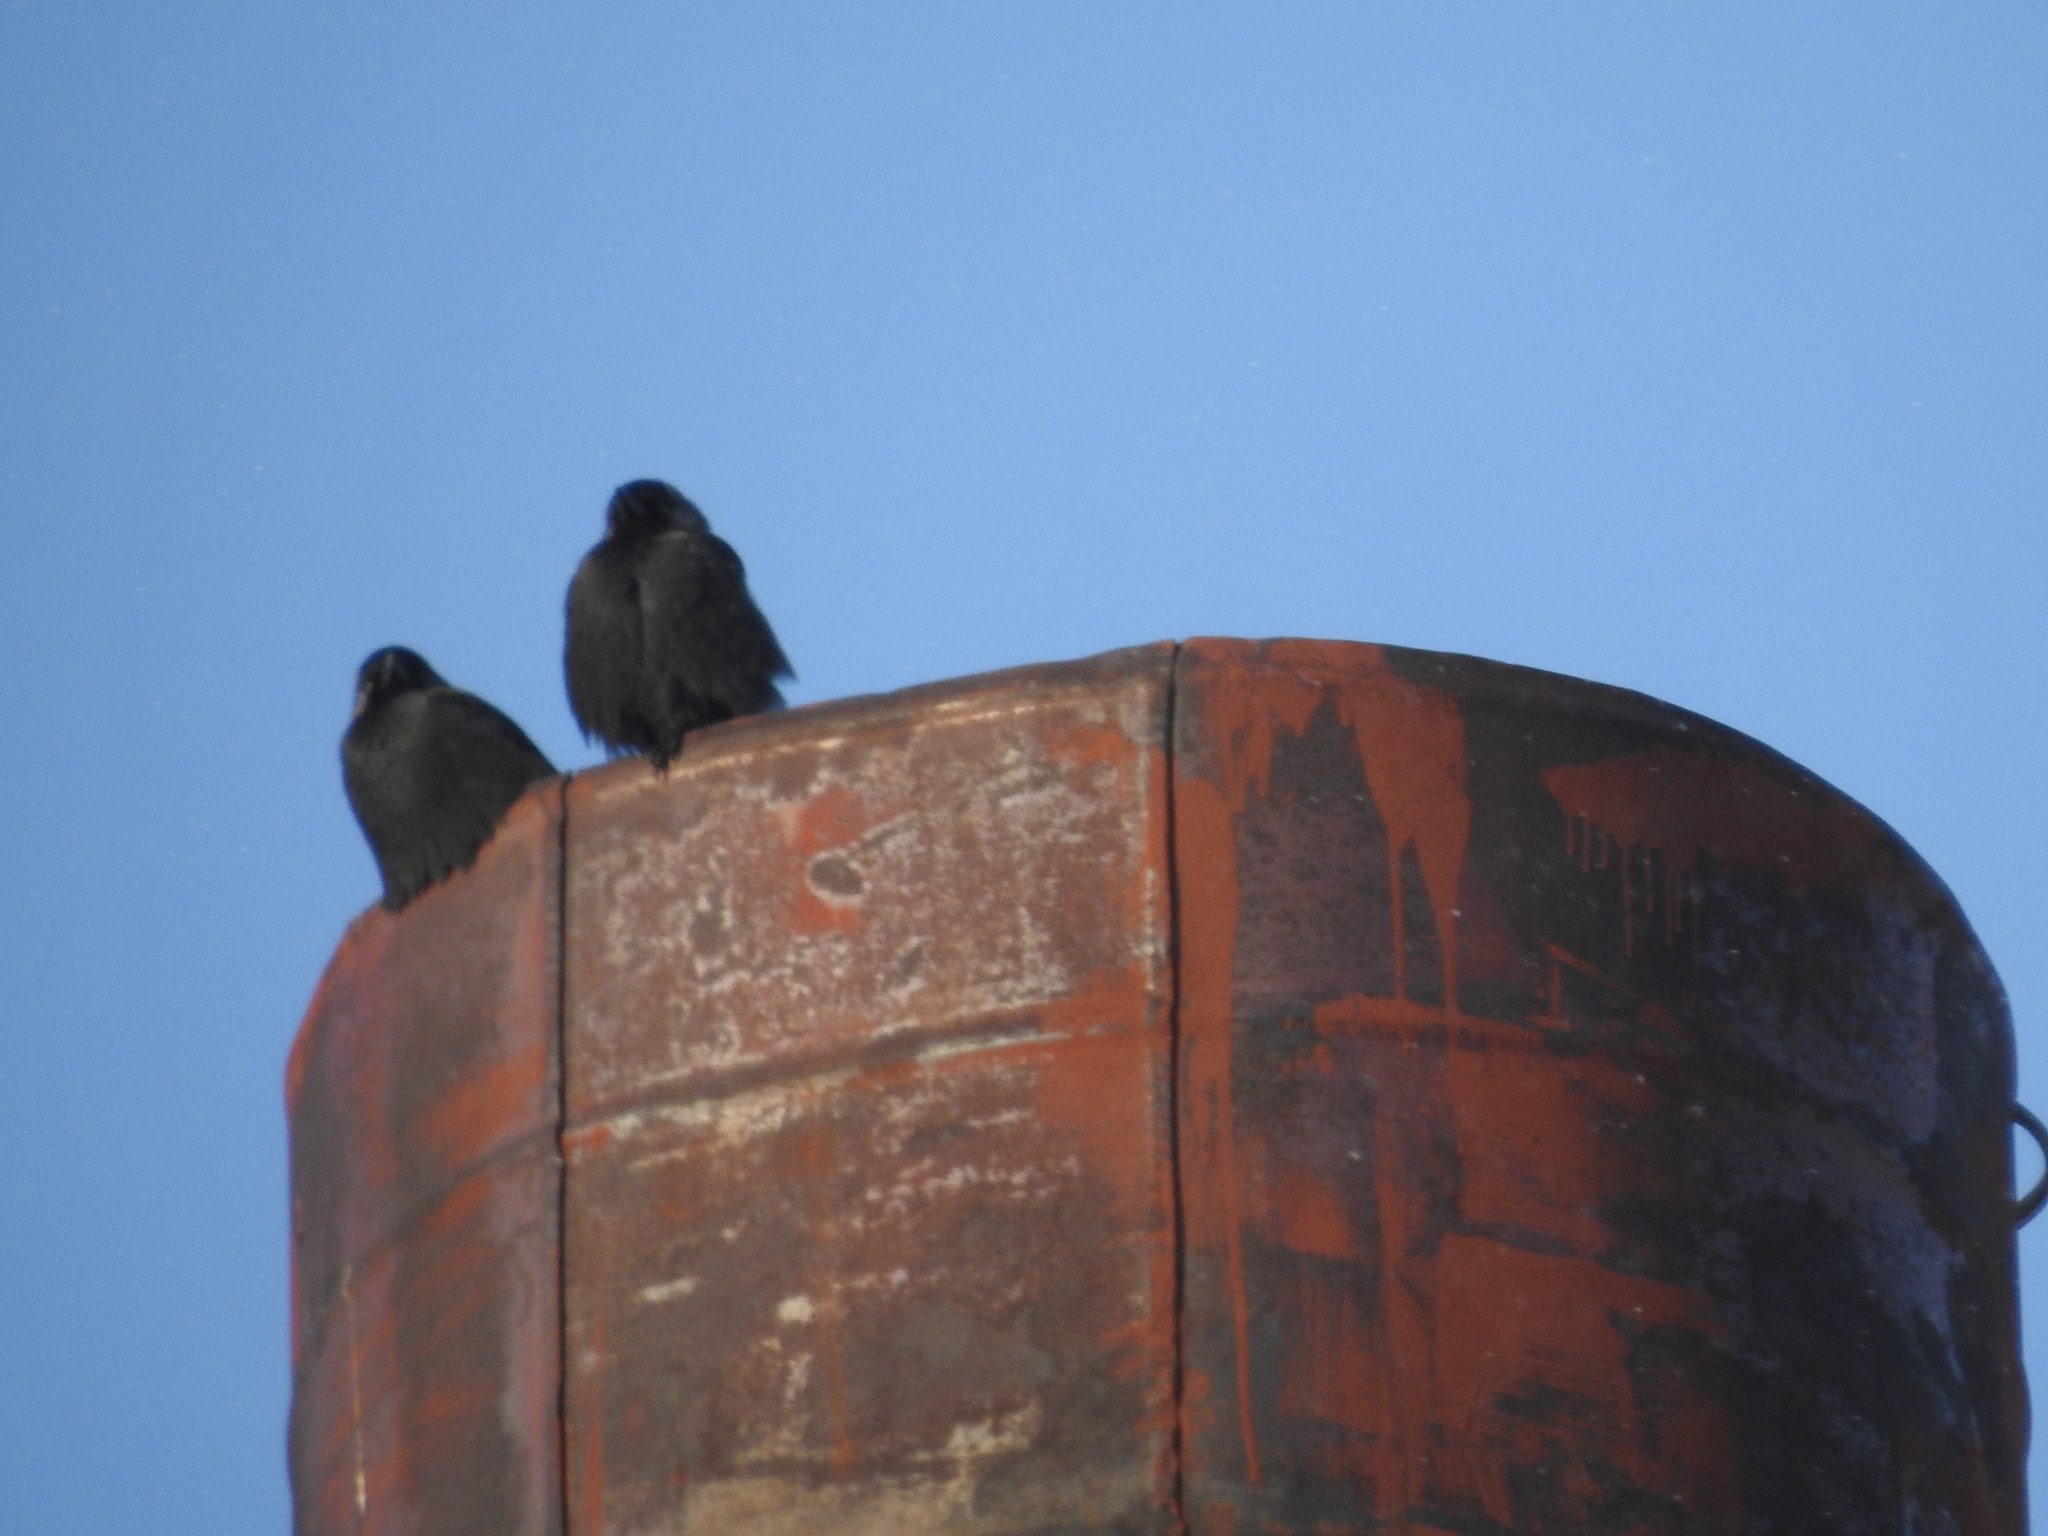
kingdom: Animalia
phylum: Chordata
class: Aves
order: Passeriformes
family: Corvidae
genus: Coloeus
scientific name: Coloeus monedula
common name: Western jackdaw
